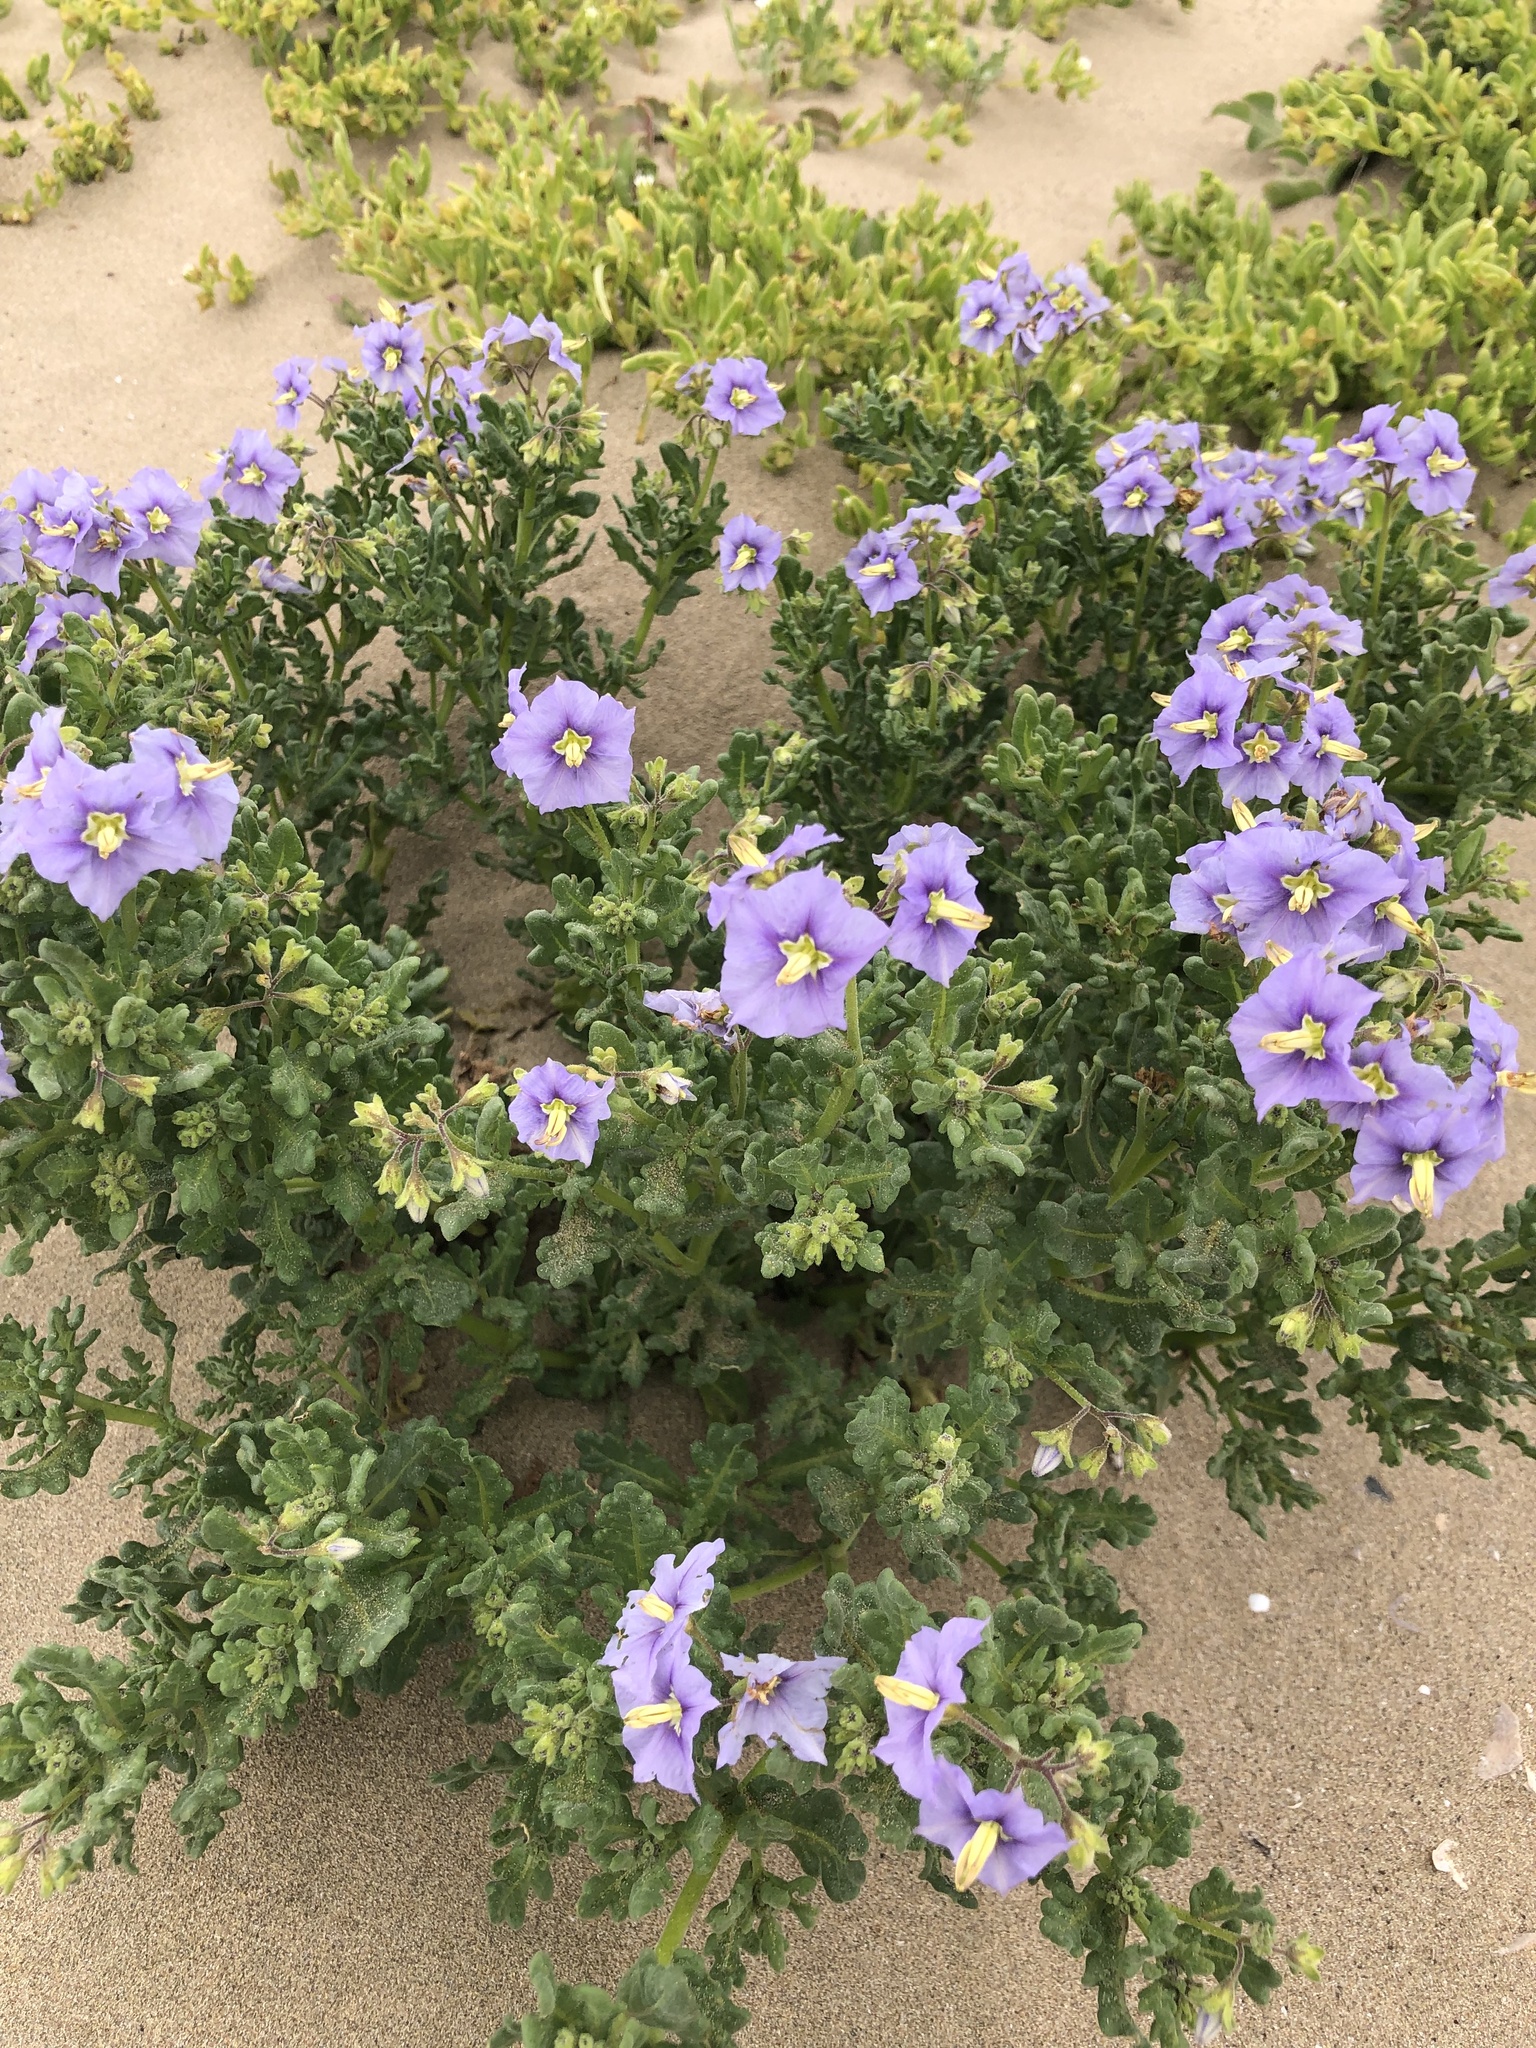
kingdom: Plantae
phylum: Tracheophyta
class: Magnoliopsida
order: Solanales
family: Solanaceae
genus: Solanum
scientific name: Solanum trinominum
